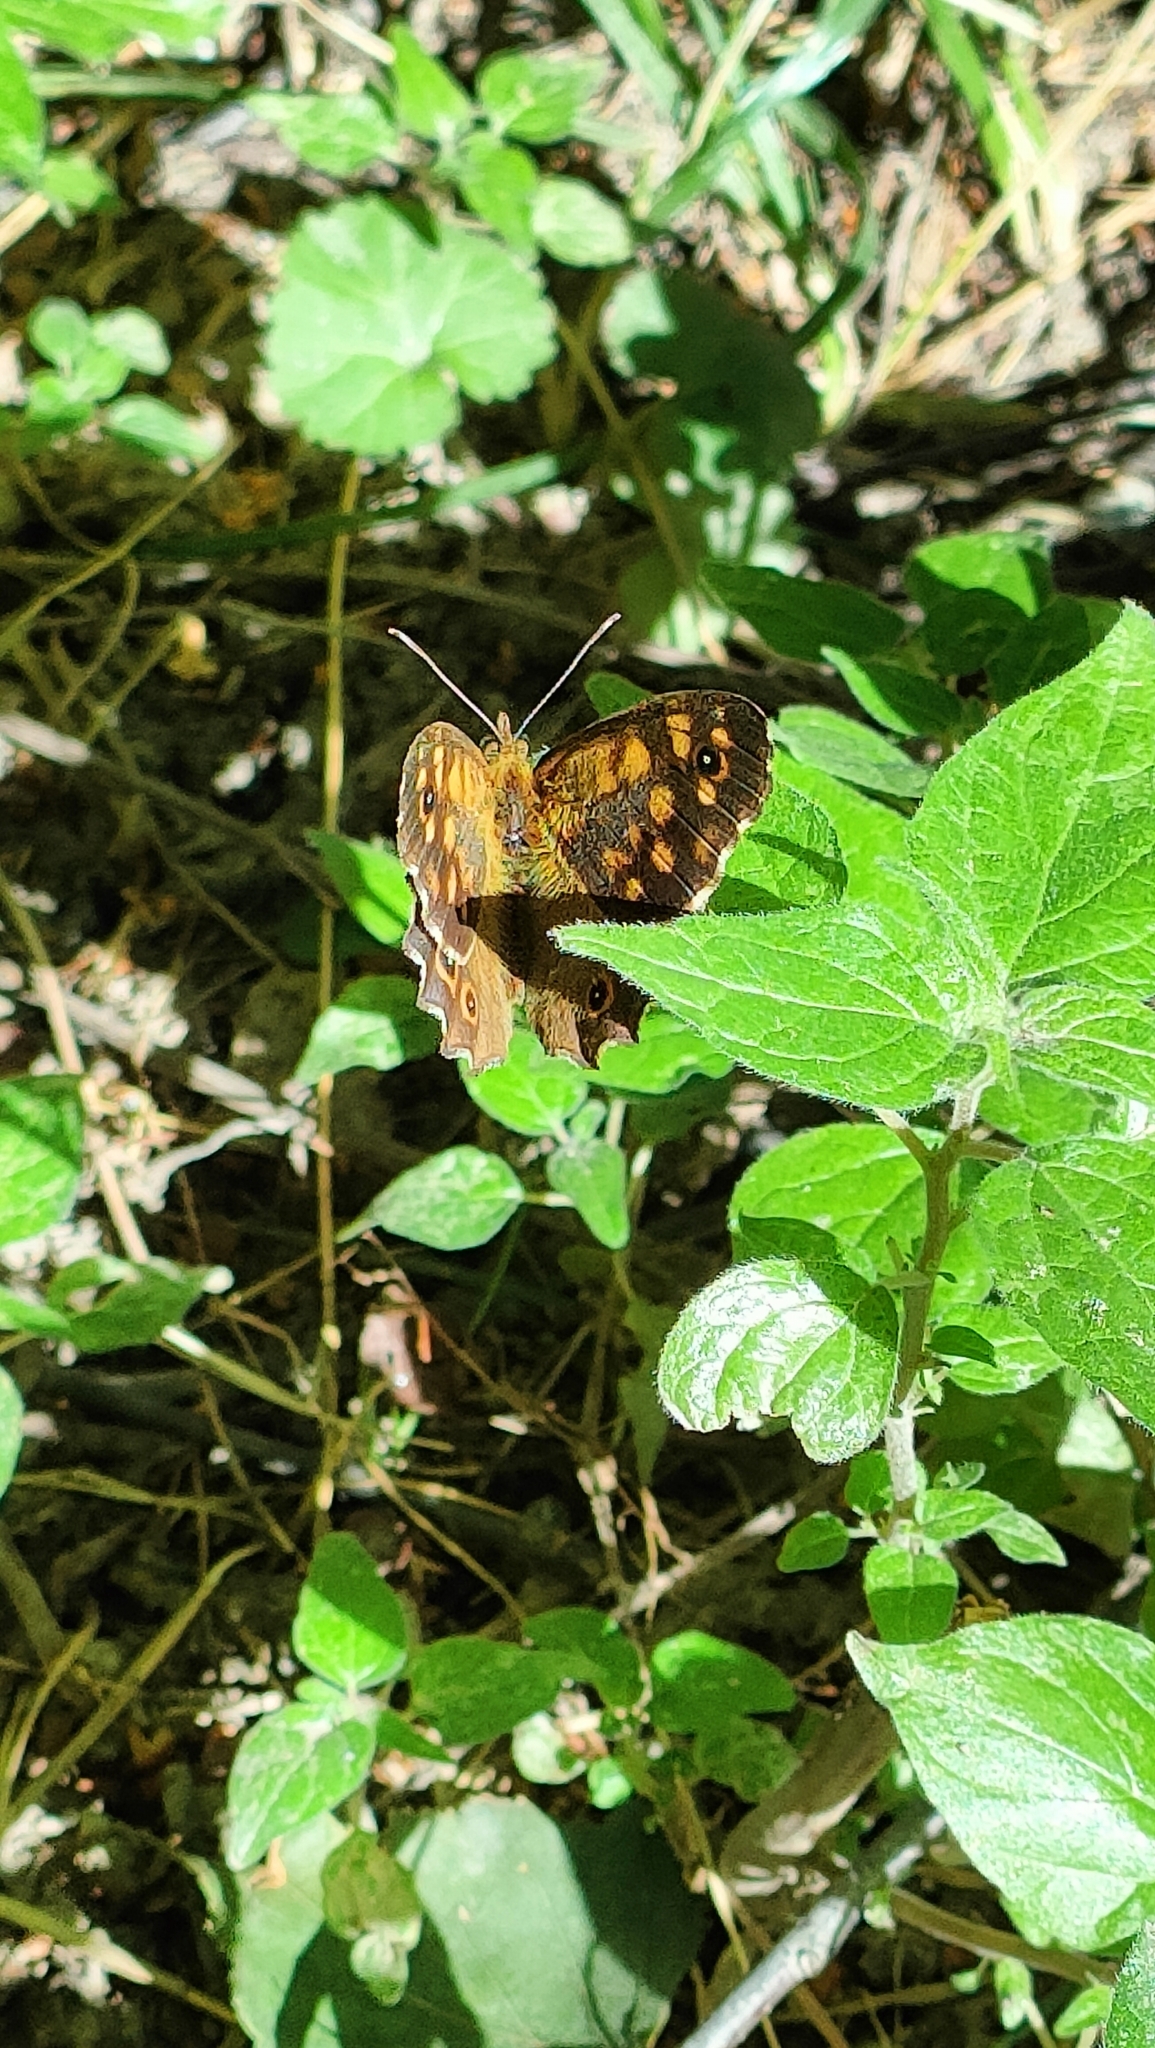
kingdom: Animalia
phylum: Arthropoda
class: Insecta
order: Lepidoptera
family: Nymphalidae
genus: Pararge
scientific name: Pararge aegeria
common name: Speckled wood
